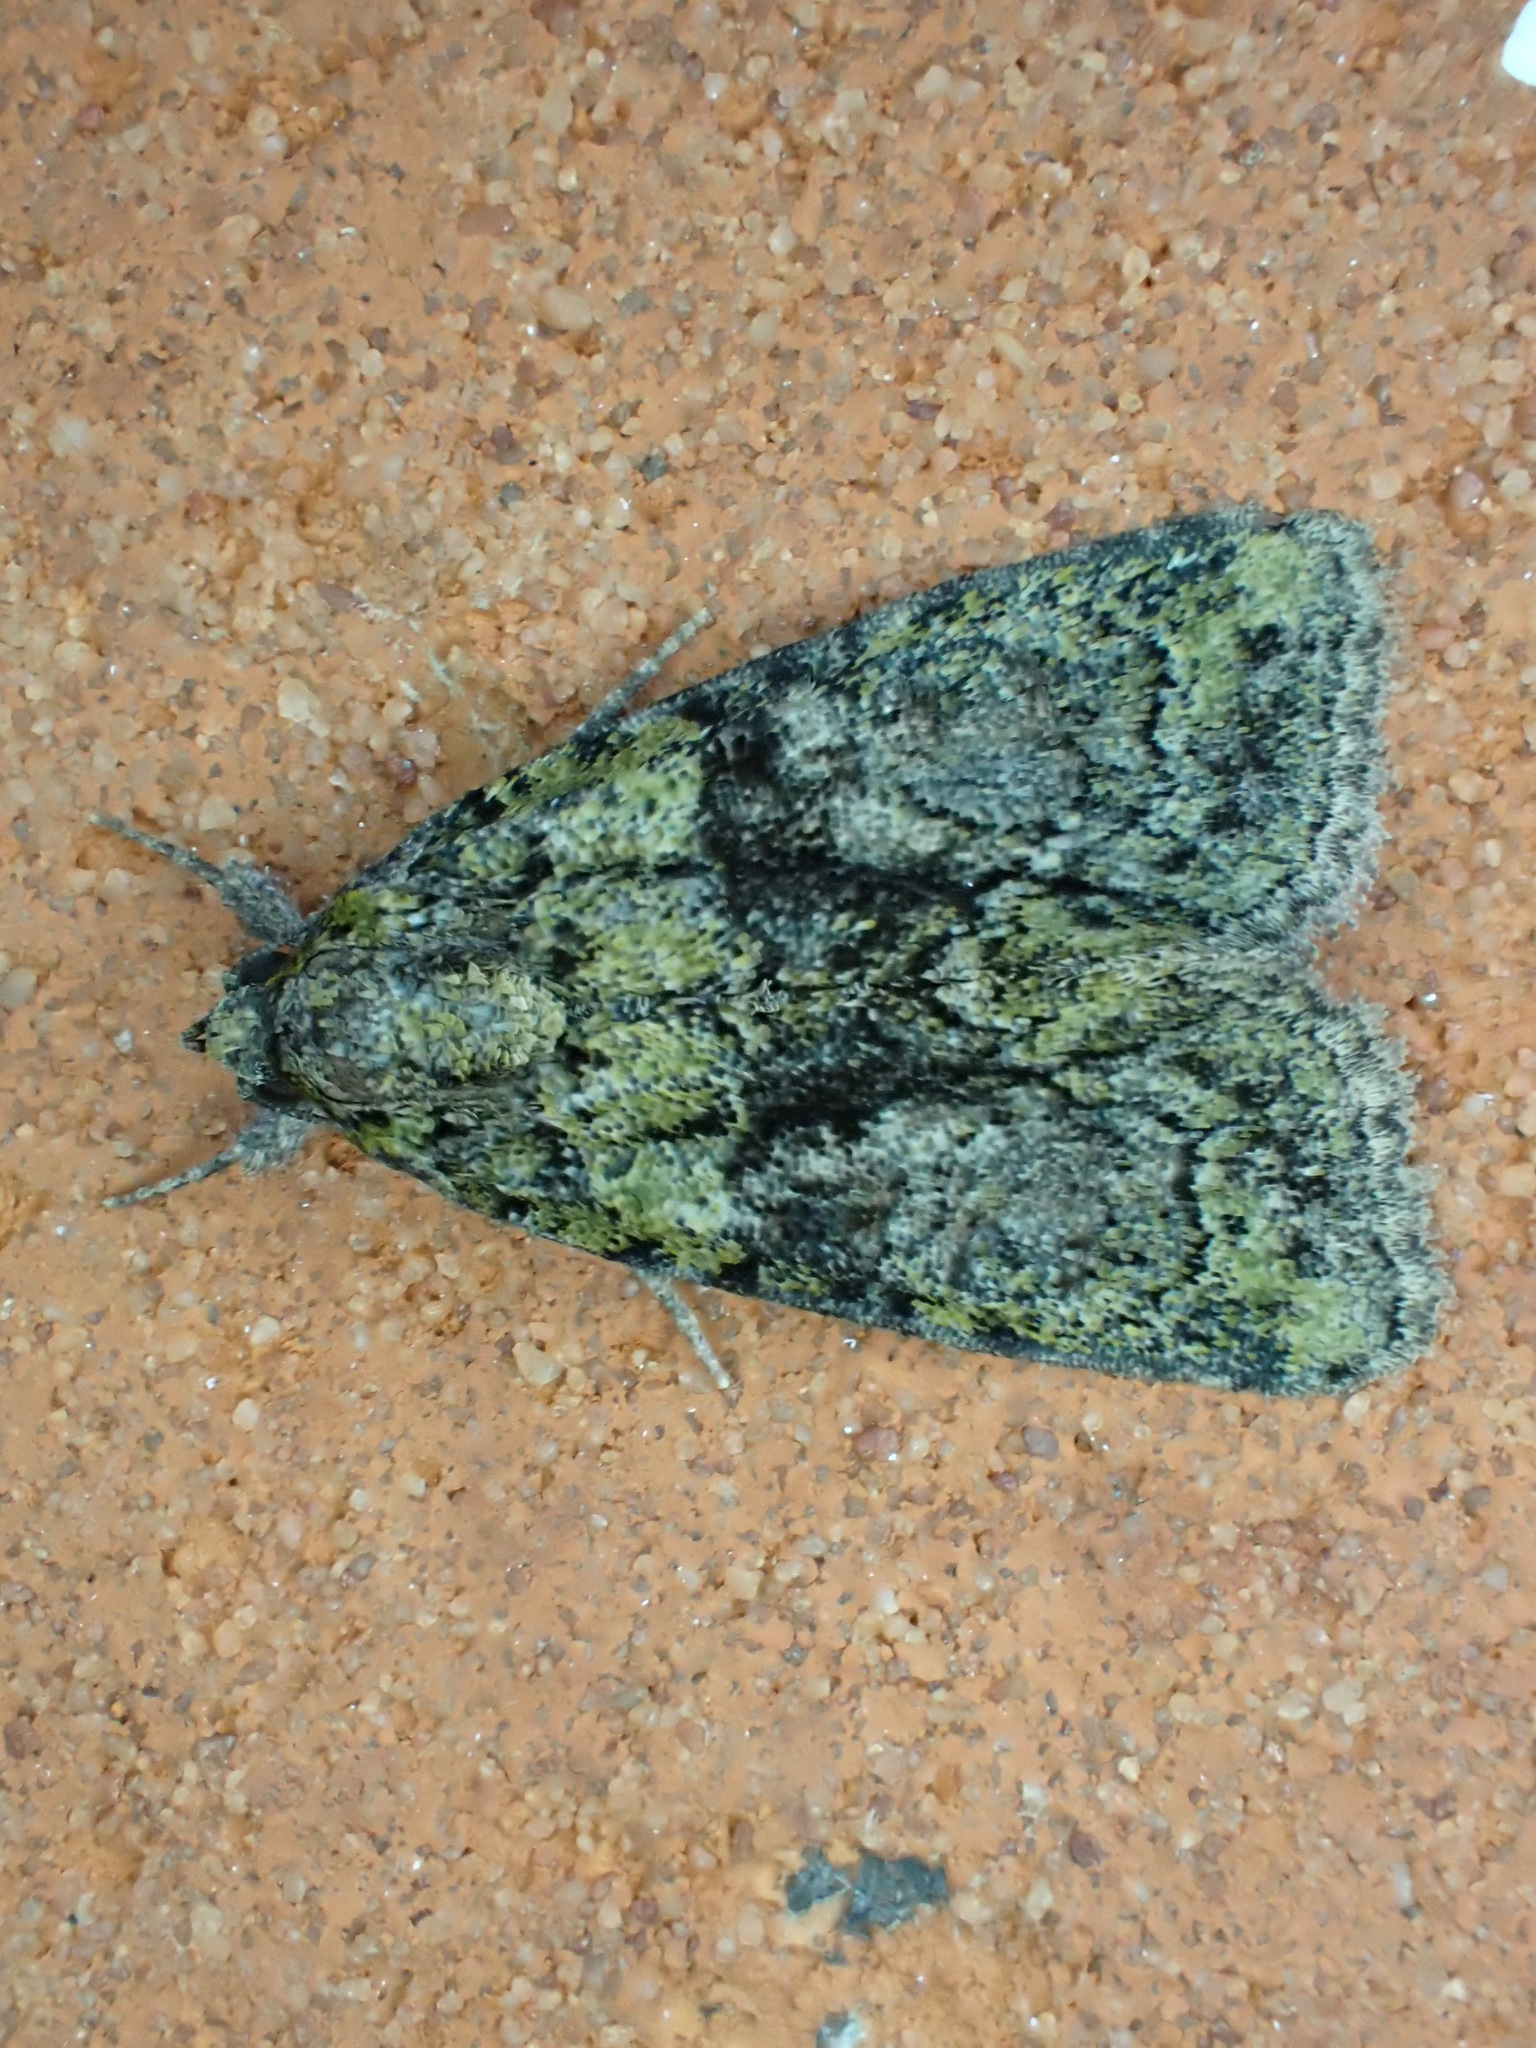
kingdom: Animalia
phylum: Arthropoda
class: Insecta
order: Lepidoptera
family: Noctuidae
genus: Cryphia
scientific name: Cryphia algae
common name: Tree-lichen beauty
